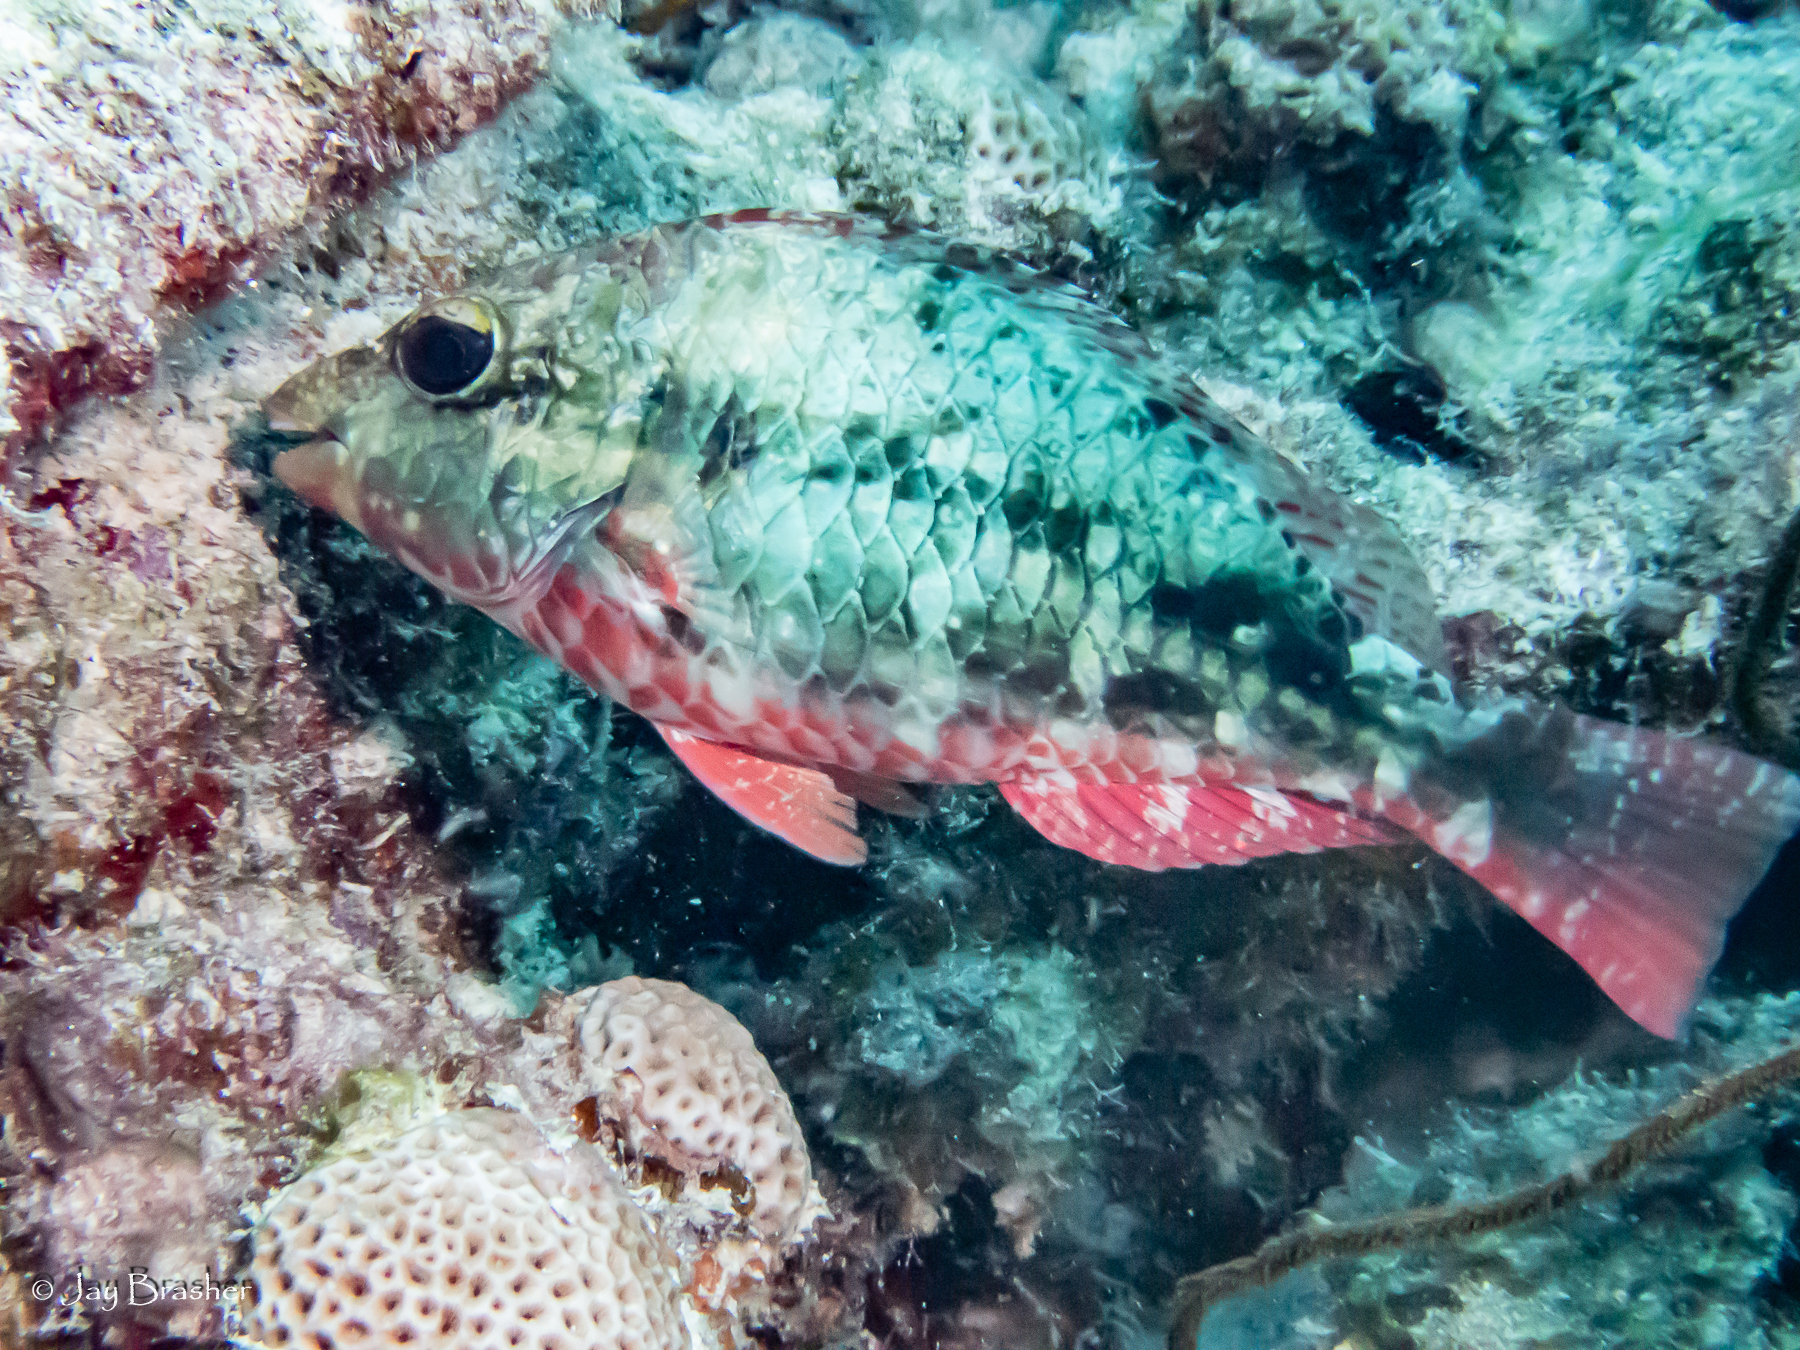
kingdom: Animalia
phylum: Chordata
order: Perciformes
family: Scaridae
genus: Sparisoma
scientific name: Sparisoma aurofrenatum
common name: Redband parrotfish
